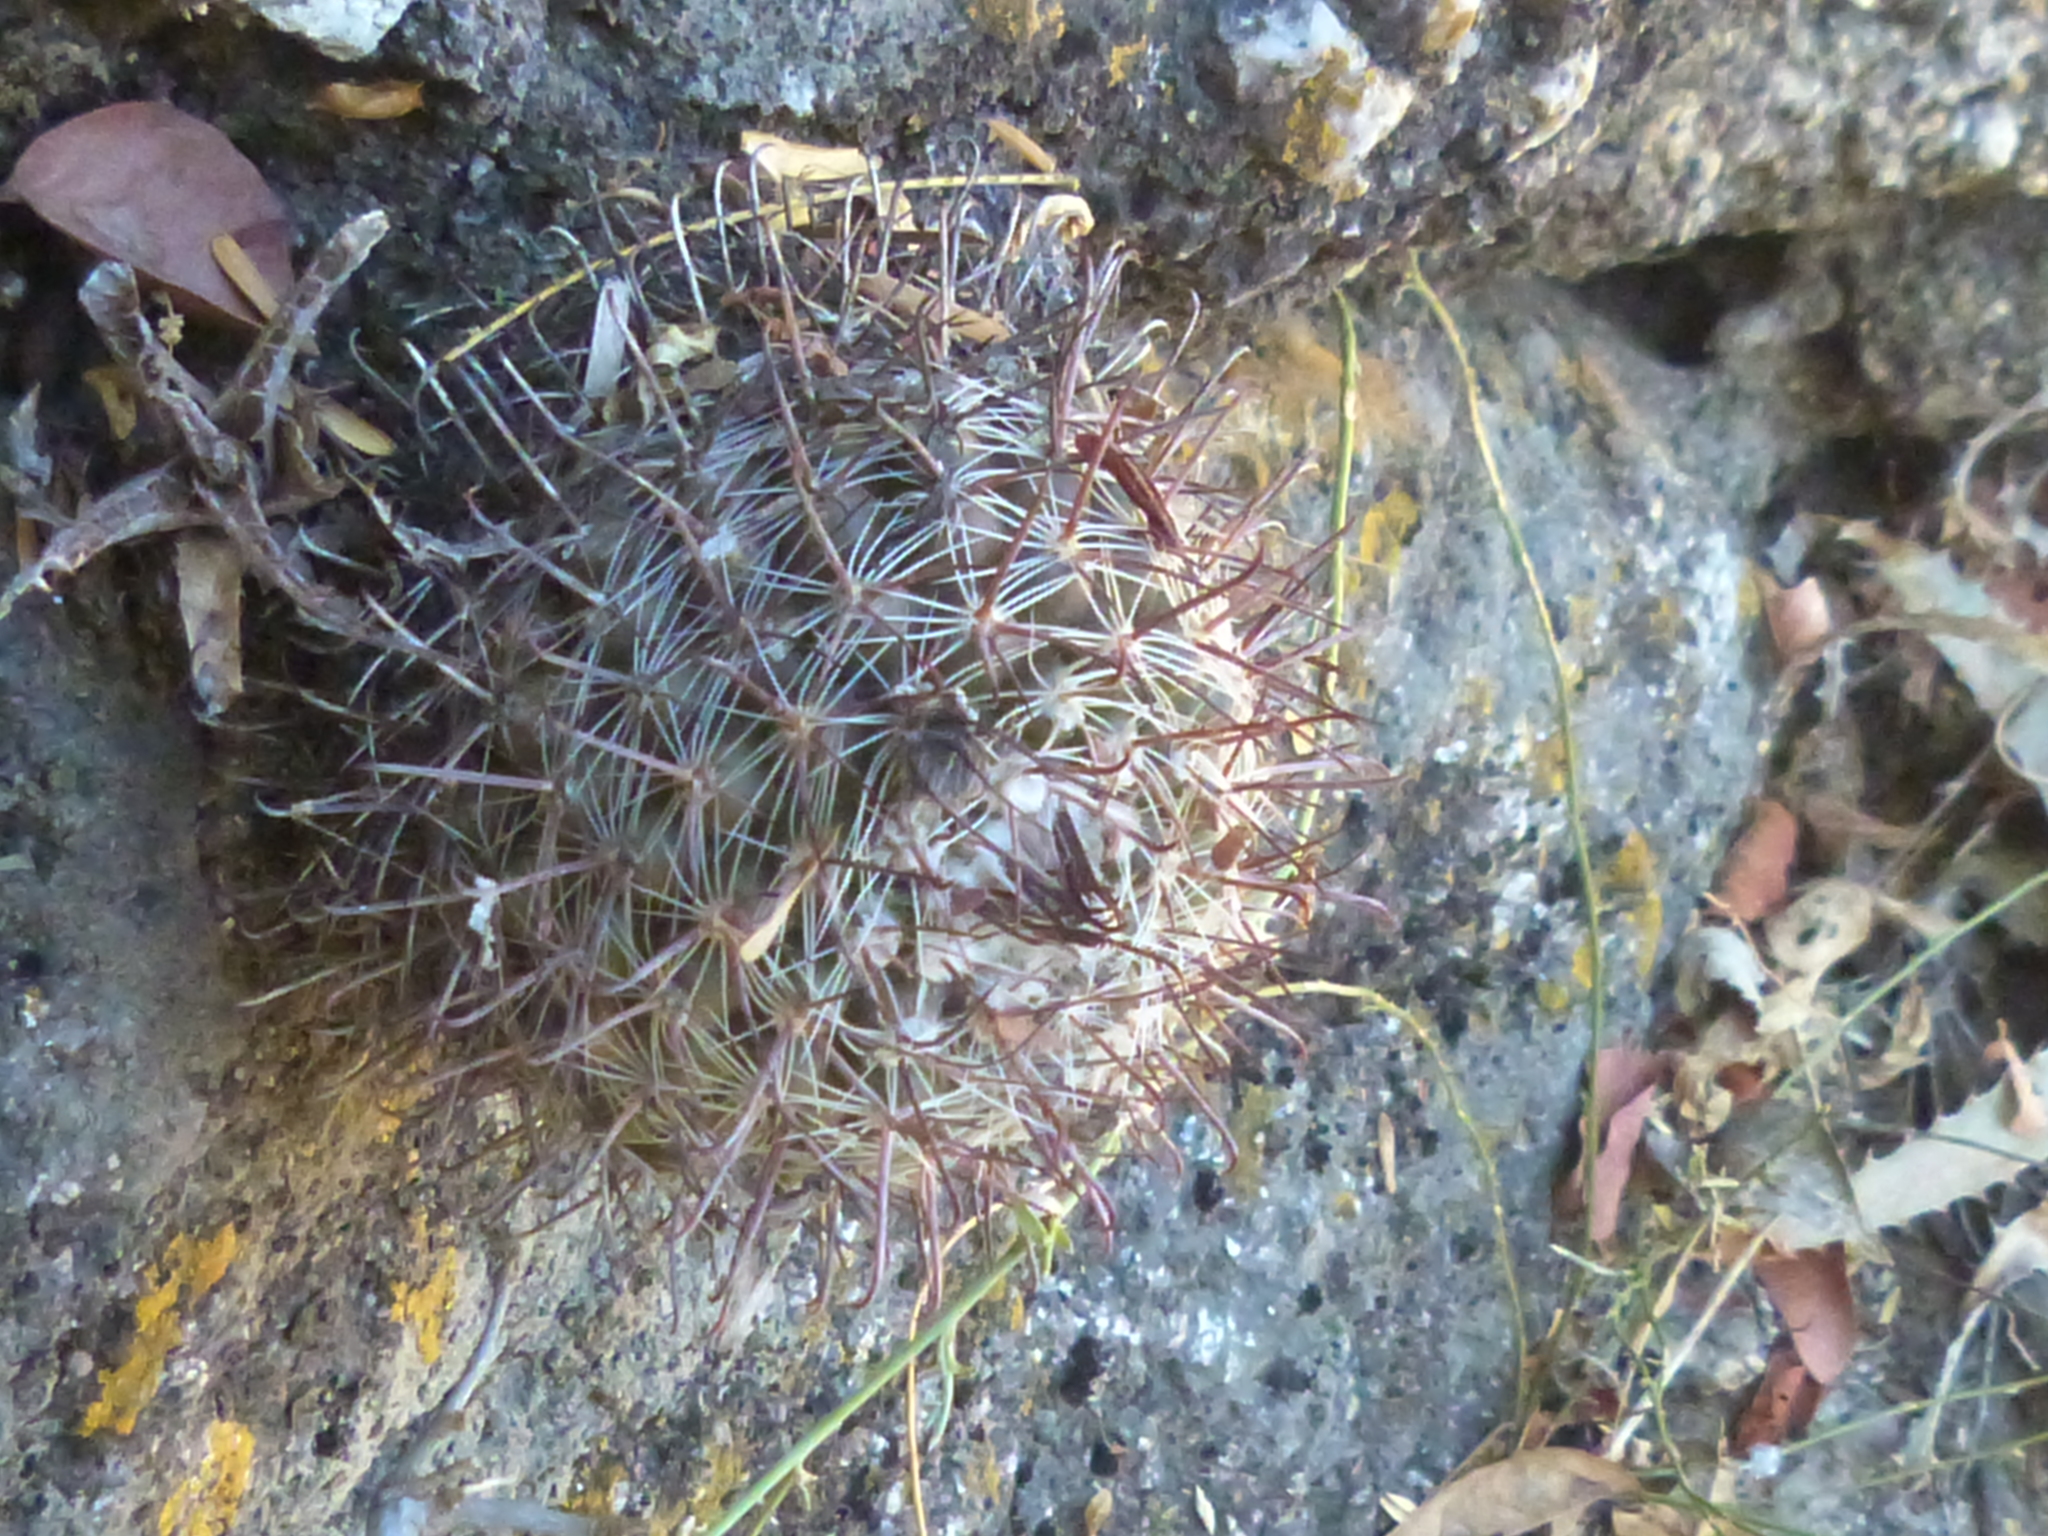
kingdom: Plantae
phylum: Tracheophyta
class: Magnoliopsida
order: Caryophyllales
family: Cactaceae
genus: Parodia
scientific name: Parodia microsperma
